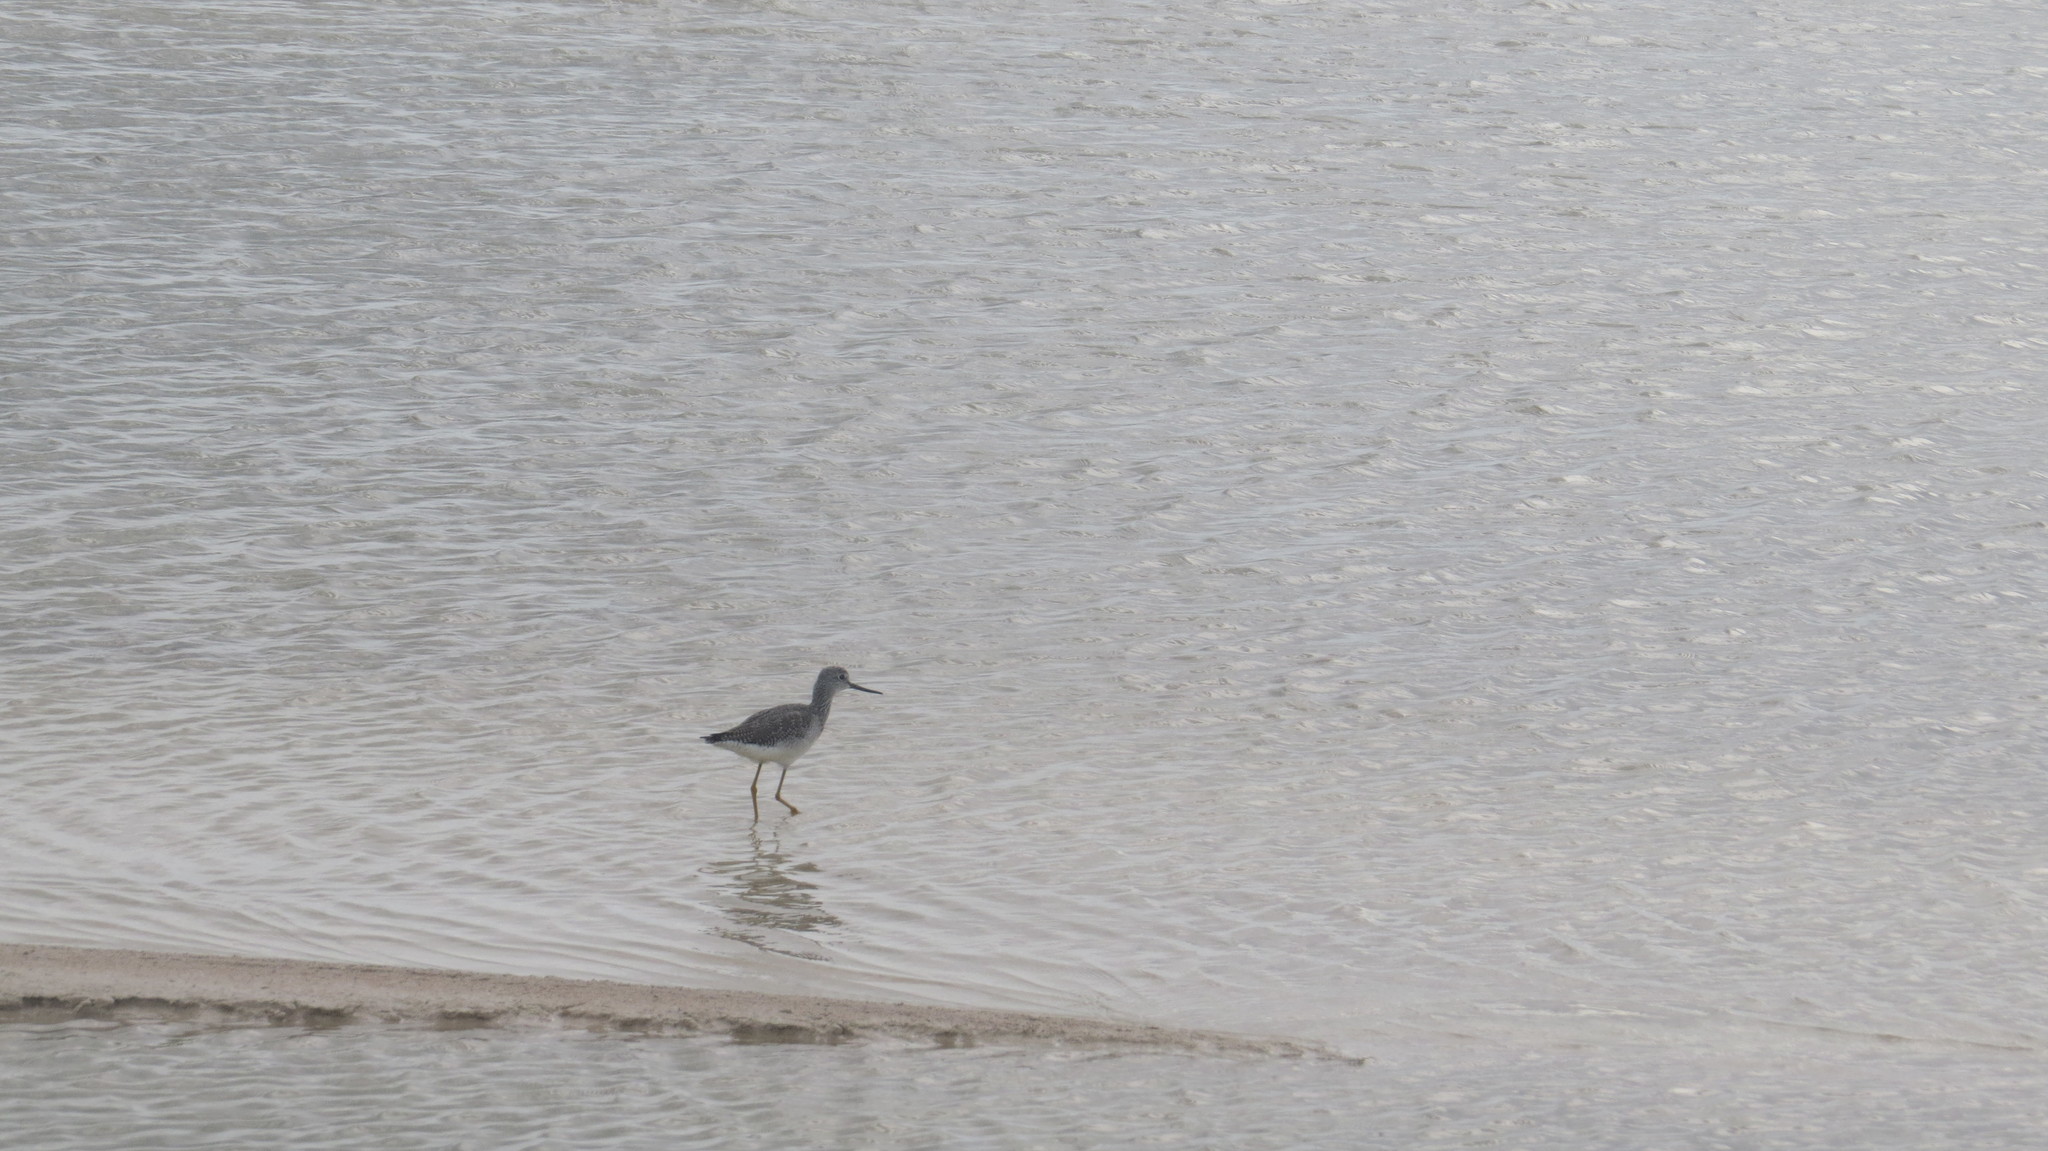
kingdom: Animalia
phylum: Chordata
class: Aves
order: Charadriiformes
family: Scolopacidae
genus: Tringa
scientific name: Tringa melanoleuca
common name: Greater yellowlegs
